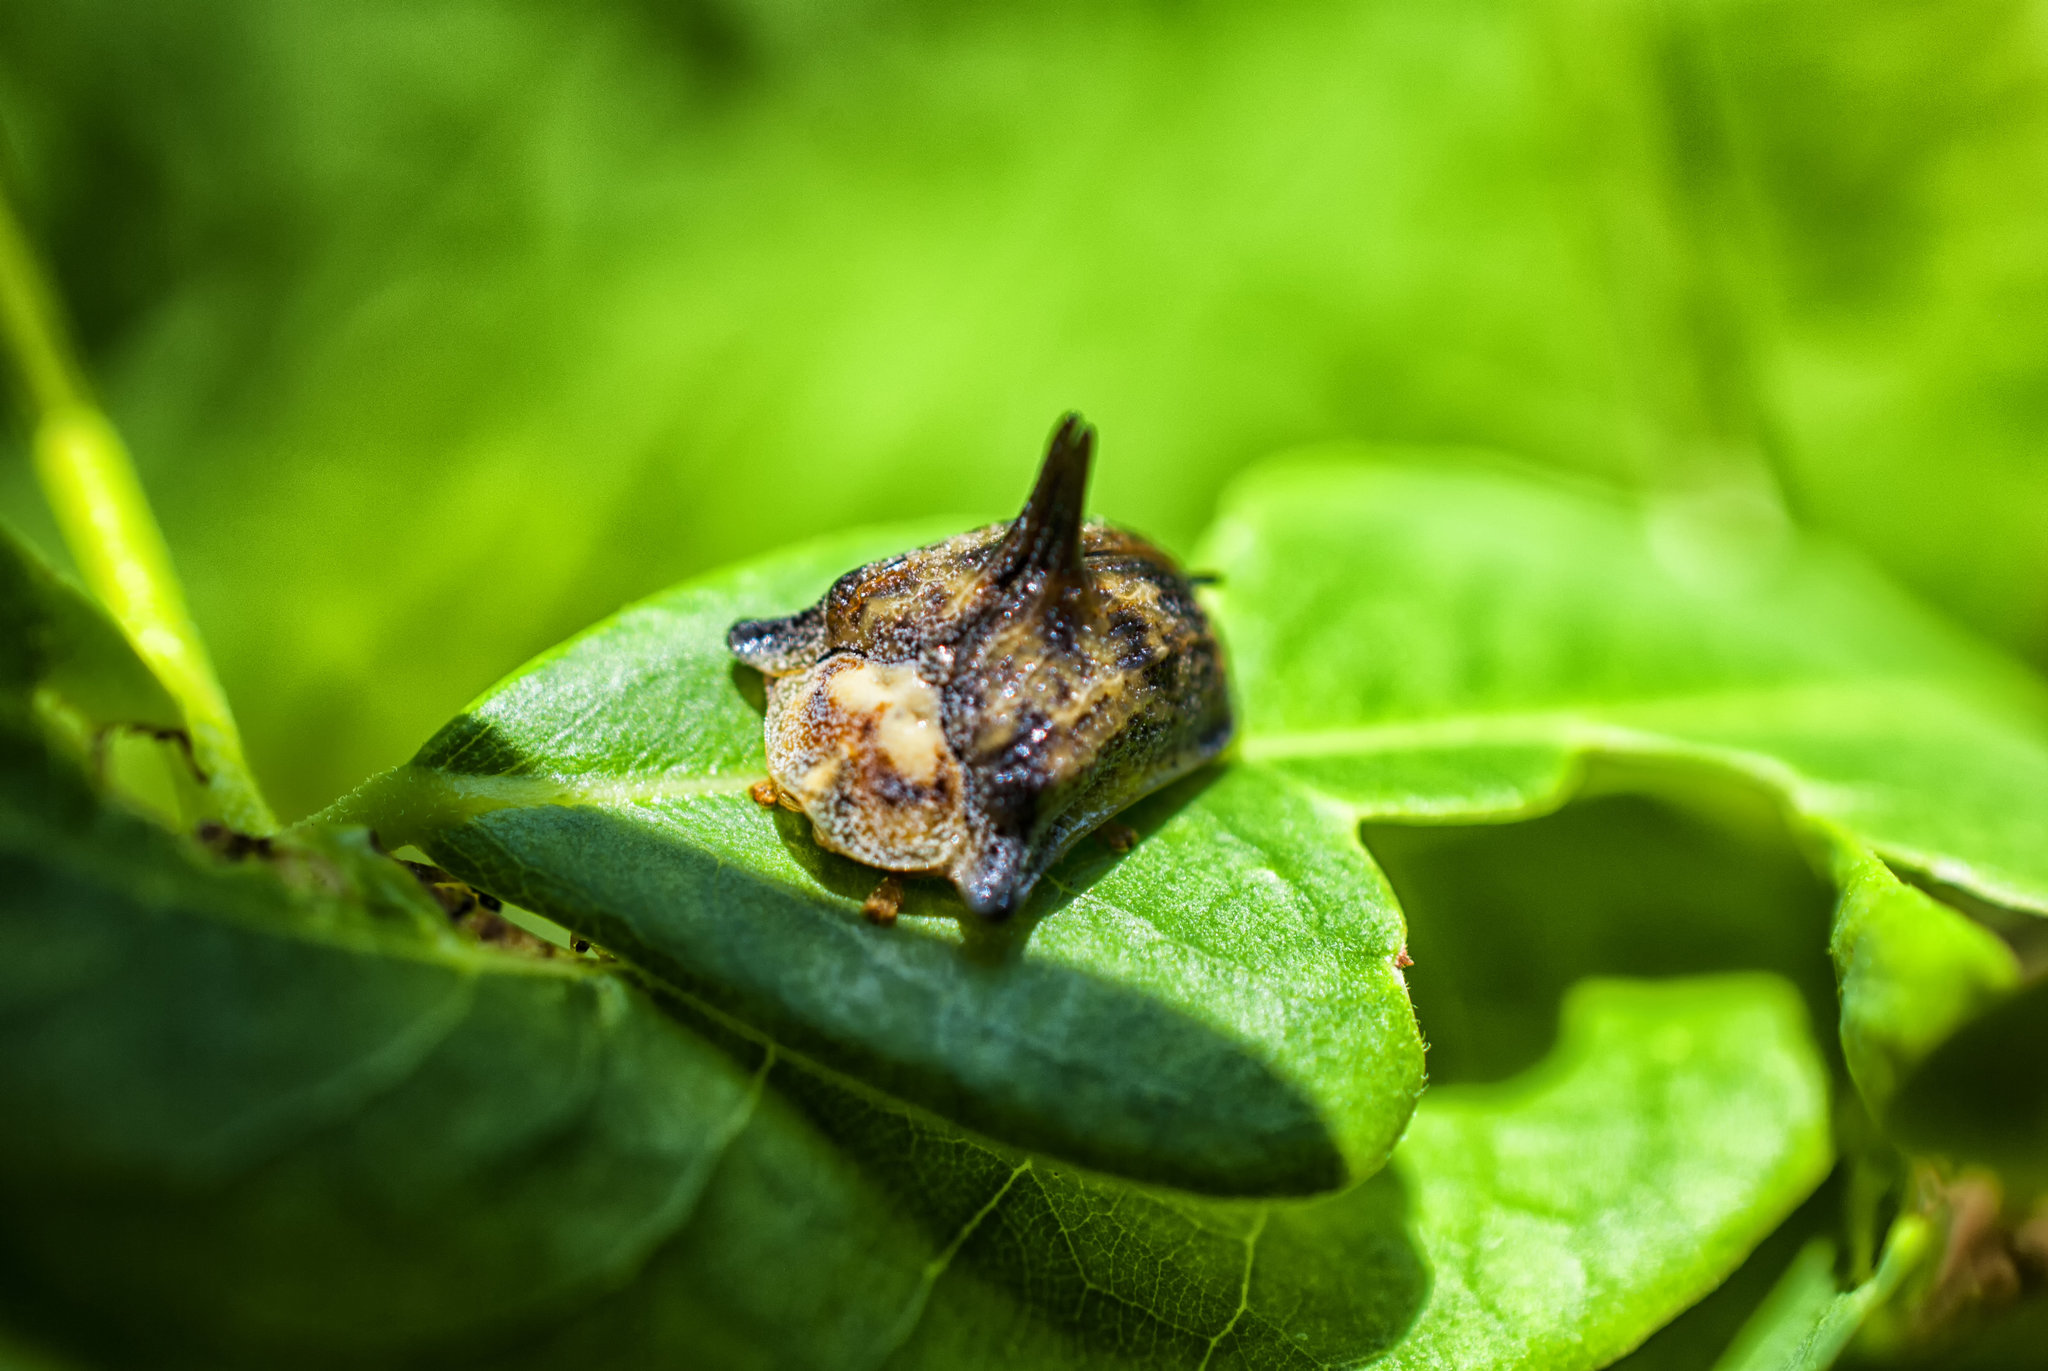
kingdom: Animalia
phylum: Arthropoda
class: Insecta
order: Coleoptera
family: Chrysomelidae
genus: Dorynota
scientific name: Dorynota aurita
